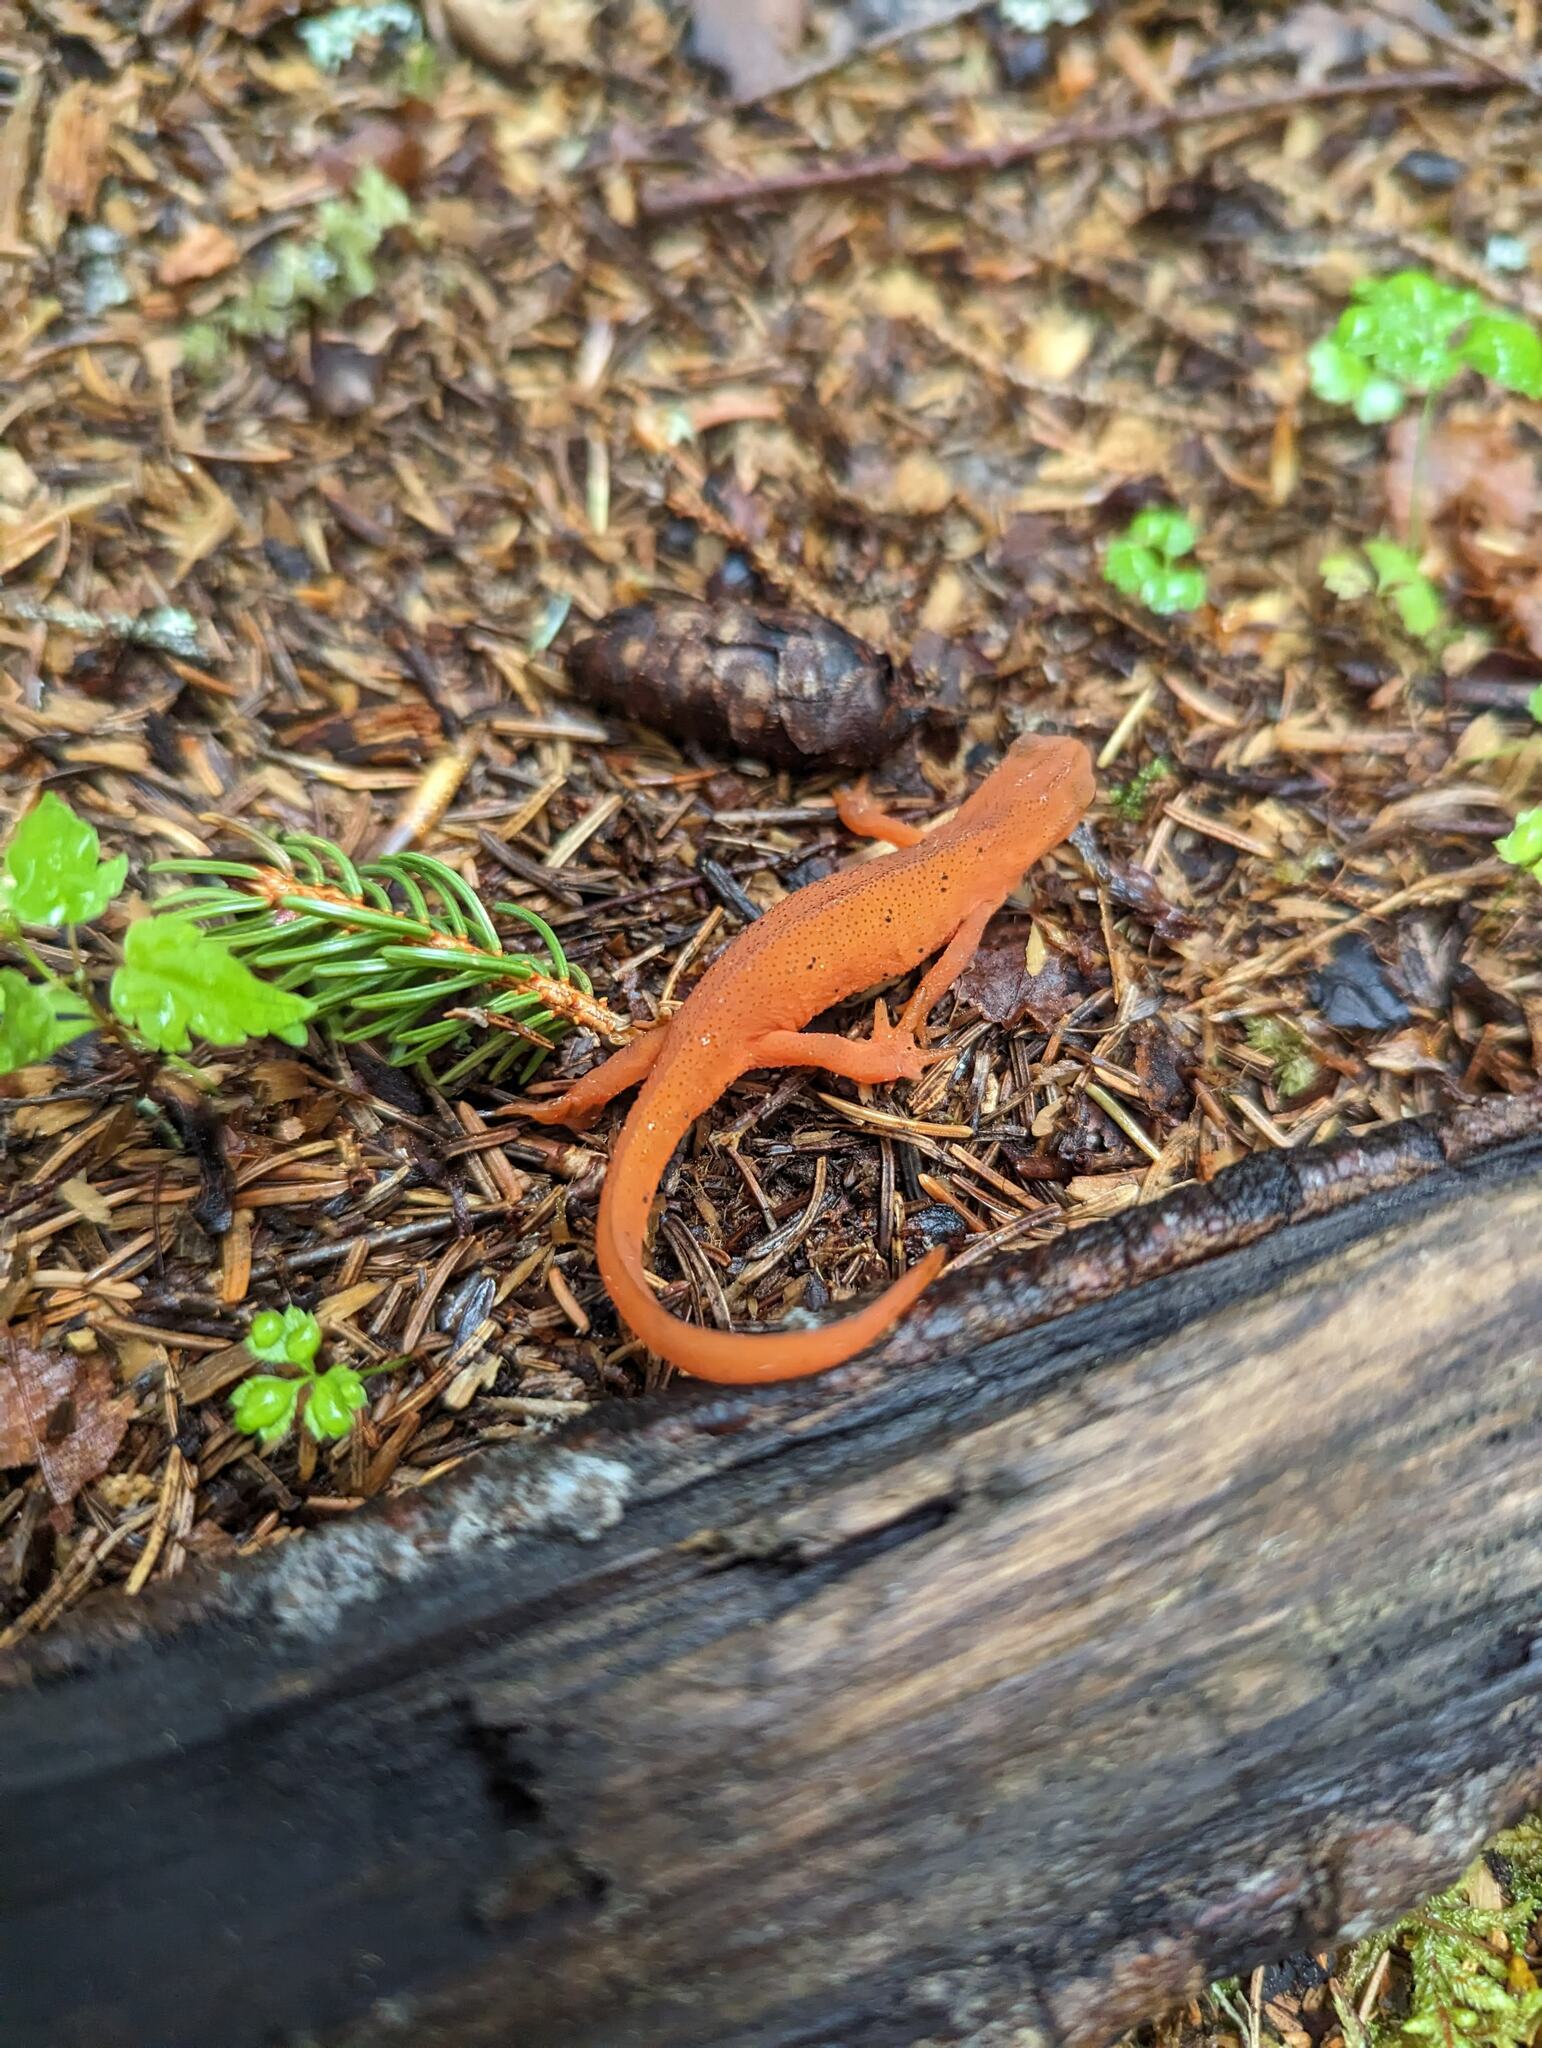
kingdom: Animalia
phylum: Chordata
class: Amphibia
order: Caudata
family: Salamandridae
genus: Notophthalmus
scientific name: Notophthalmus viridescens
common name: Eastern newt
